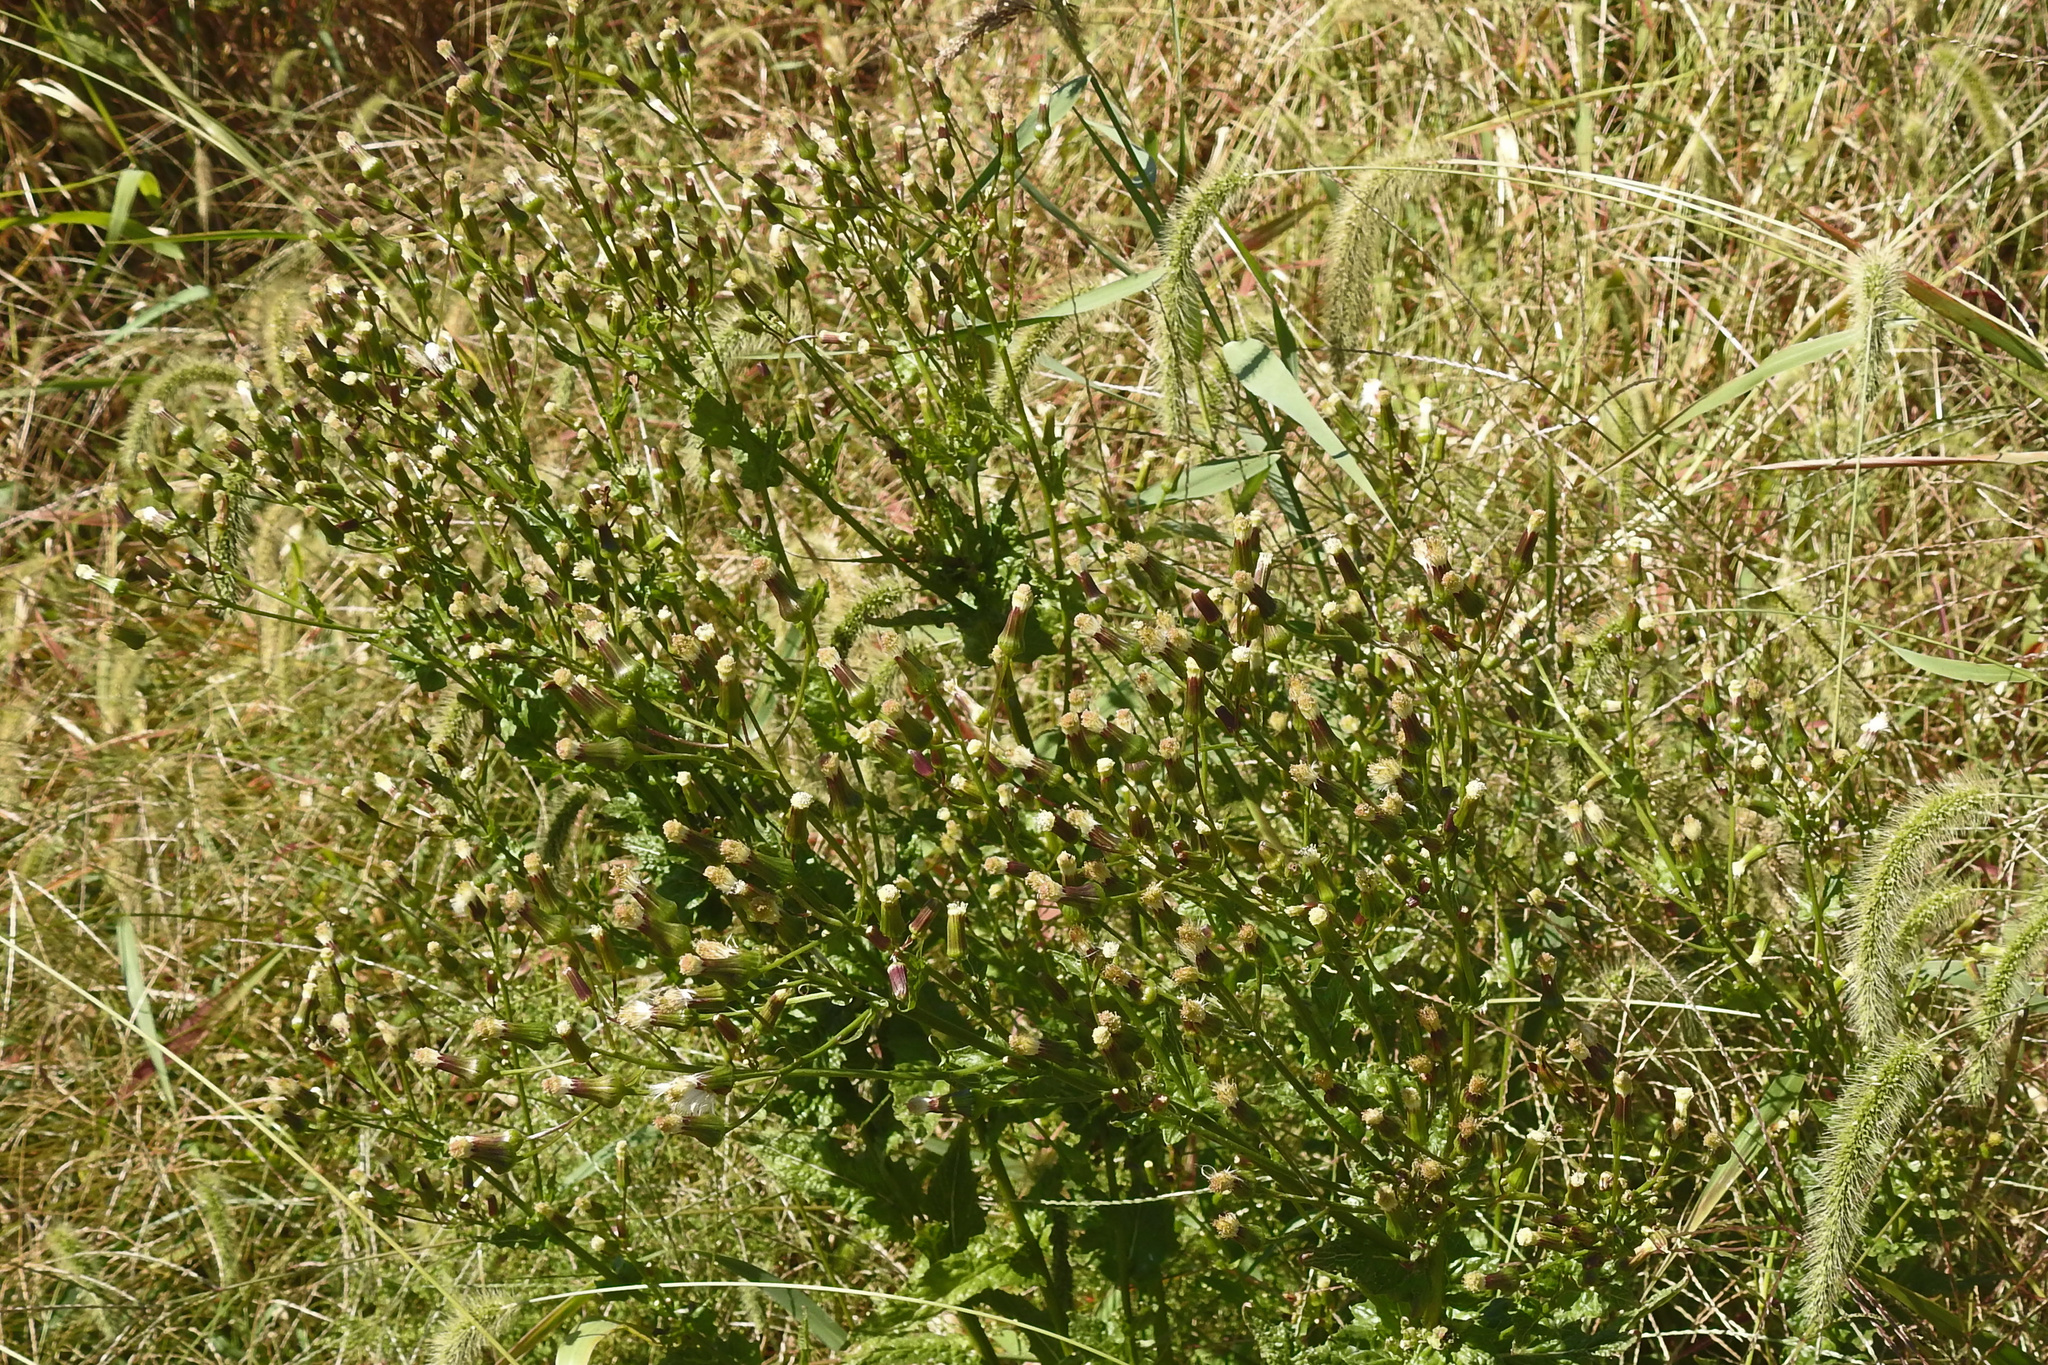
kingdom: Plantae
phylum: Tracheophyta
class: Magnoliopsida
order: Asterales
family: Asteraceae
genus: Erechtites
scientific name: Erechtites hieraciifolius
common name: American burnweed
